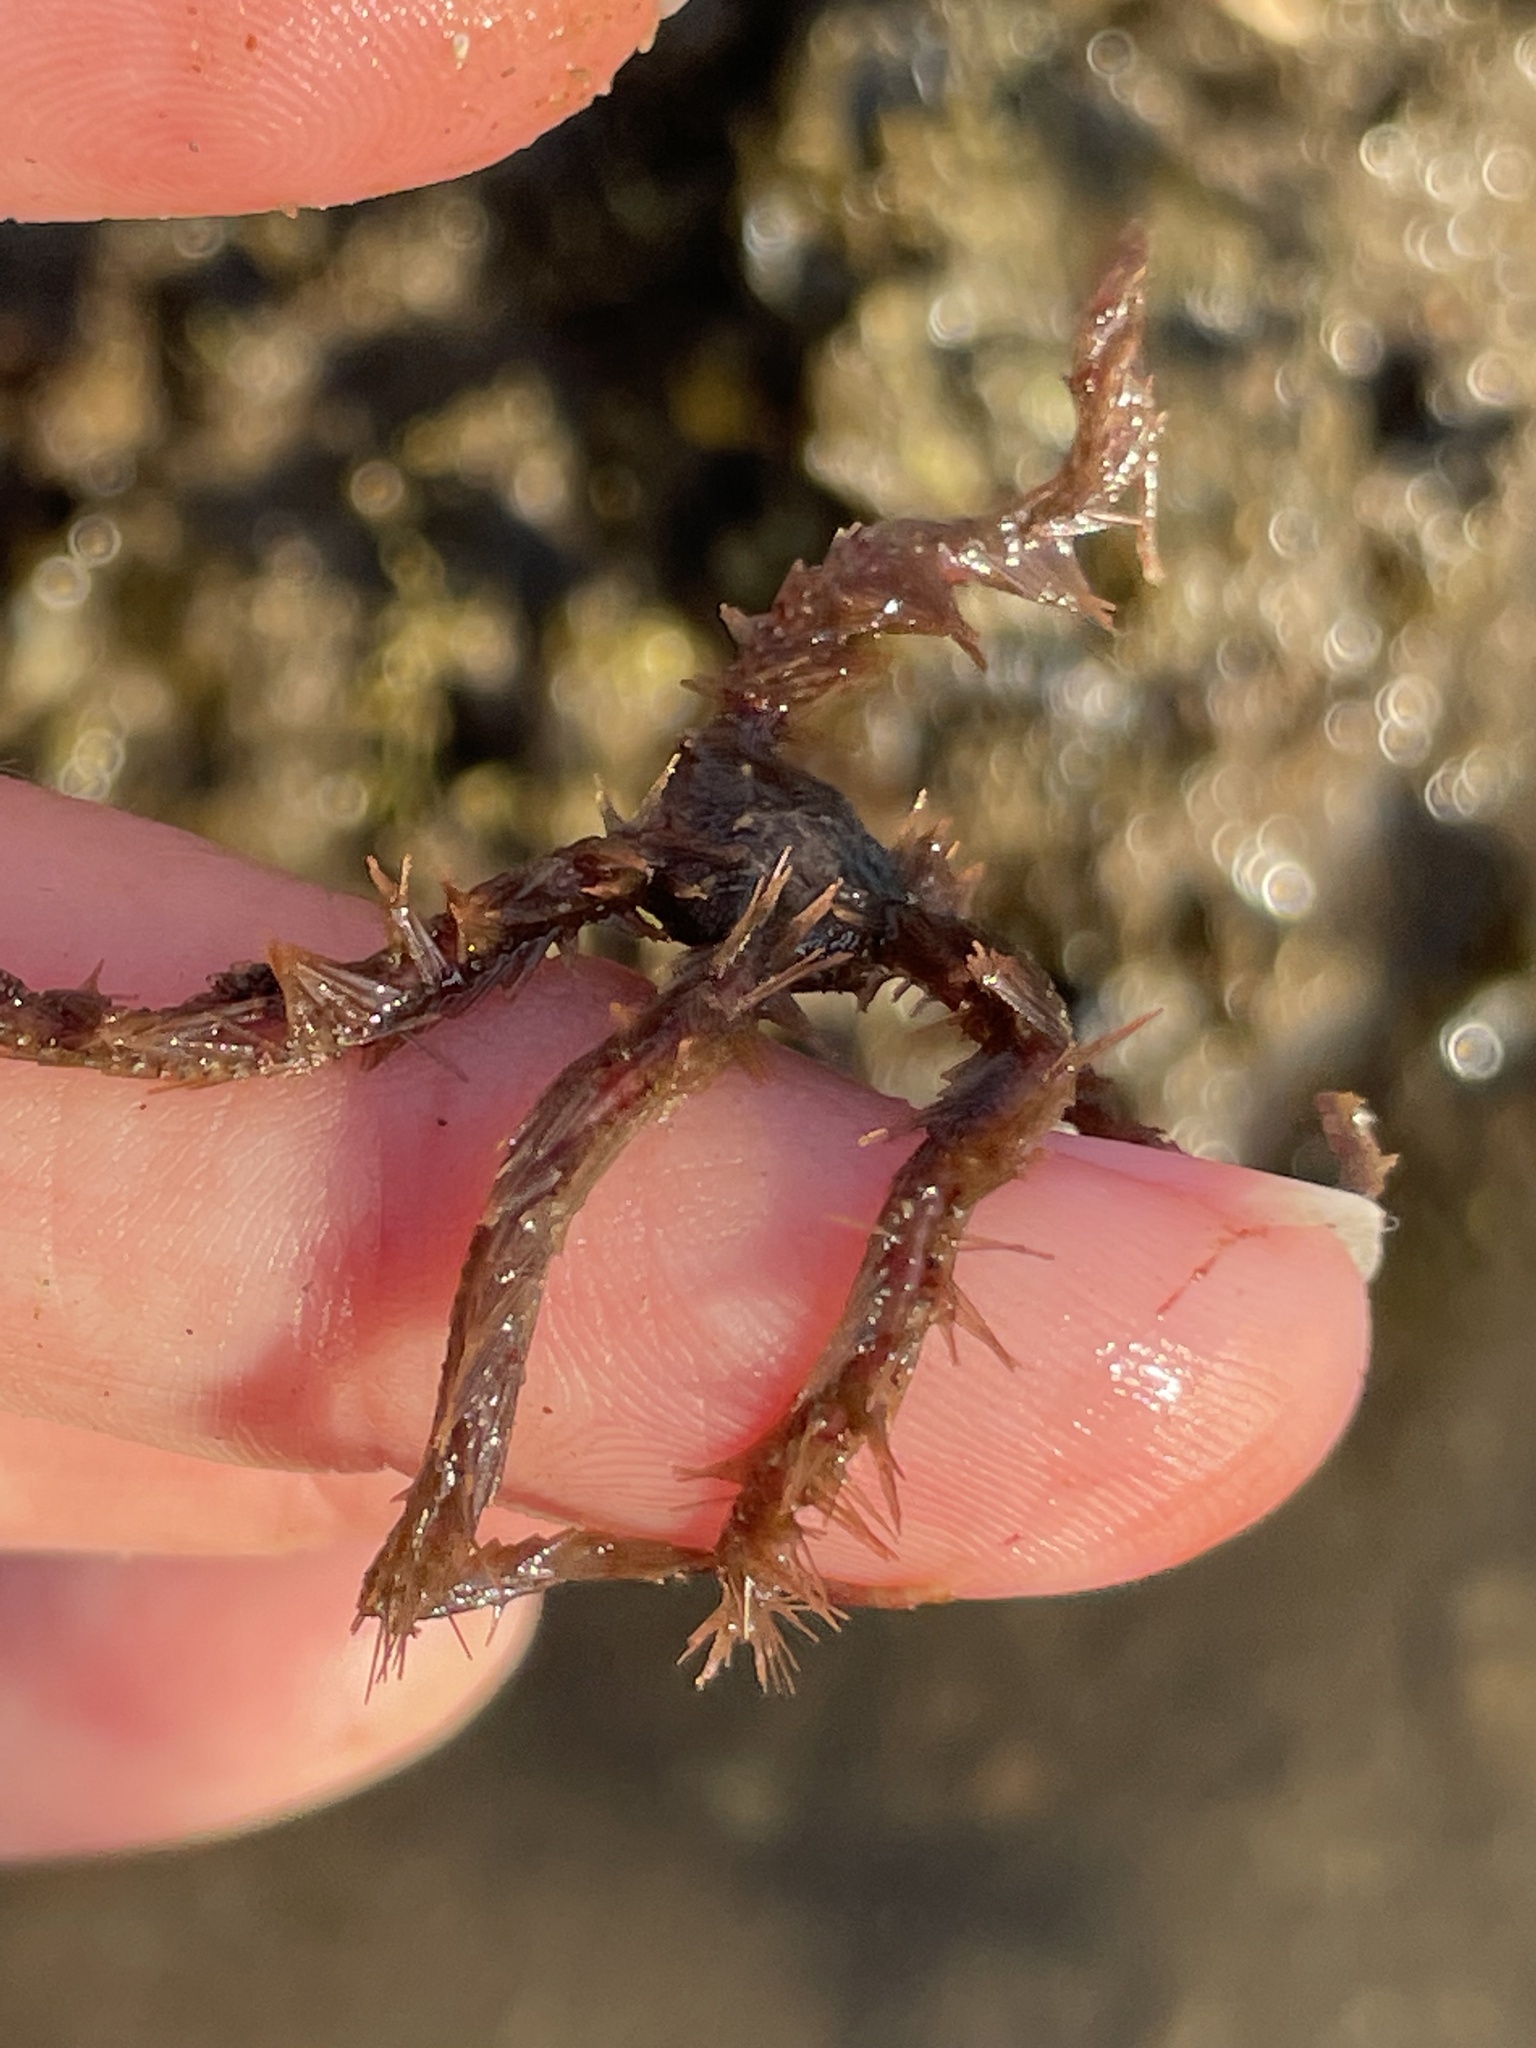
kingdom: Animalia
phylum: Echinodermata
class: Ophiuroidea
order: Amphilepidida
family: Ophiotrichidae
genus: Ophiothrix
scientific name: Ophiothrix spiculata
